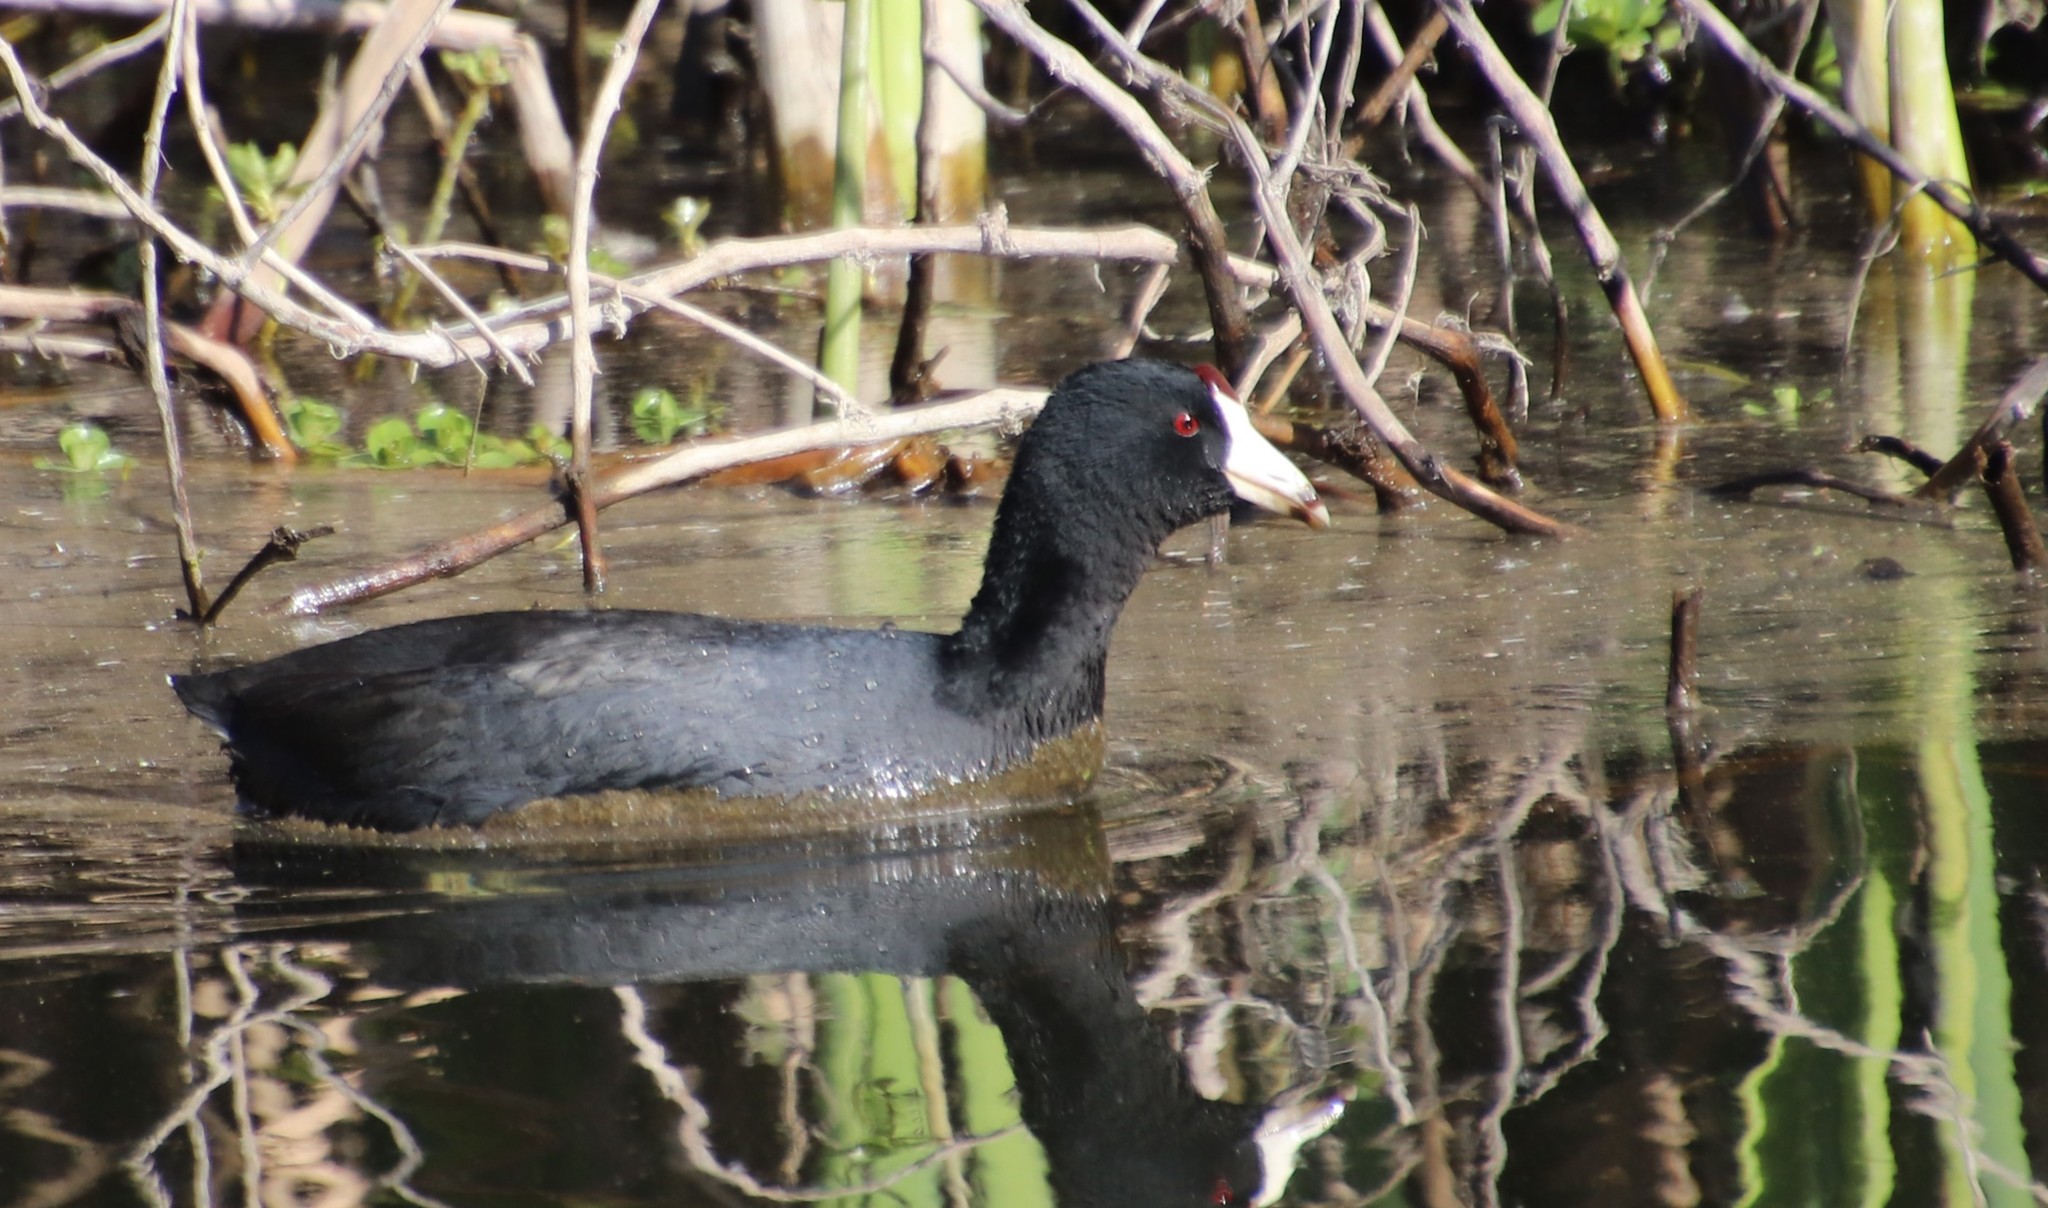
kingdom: Animalia
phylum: Chordata
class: Aves
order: Gruiformes
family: Rallidae
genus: Fulica
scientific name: Fulica americana
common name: American coot
